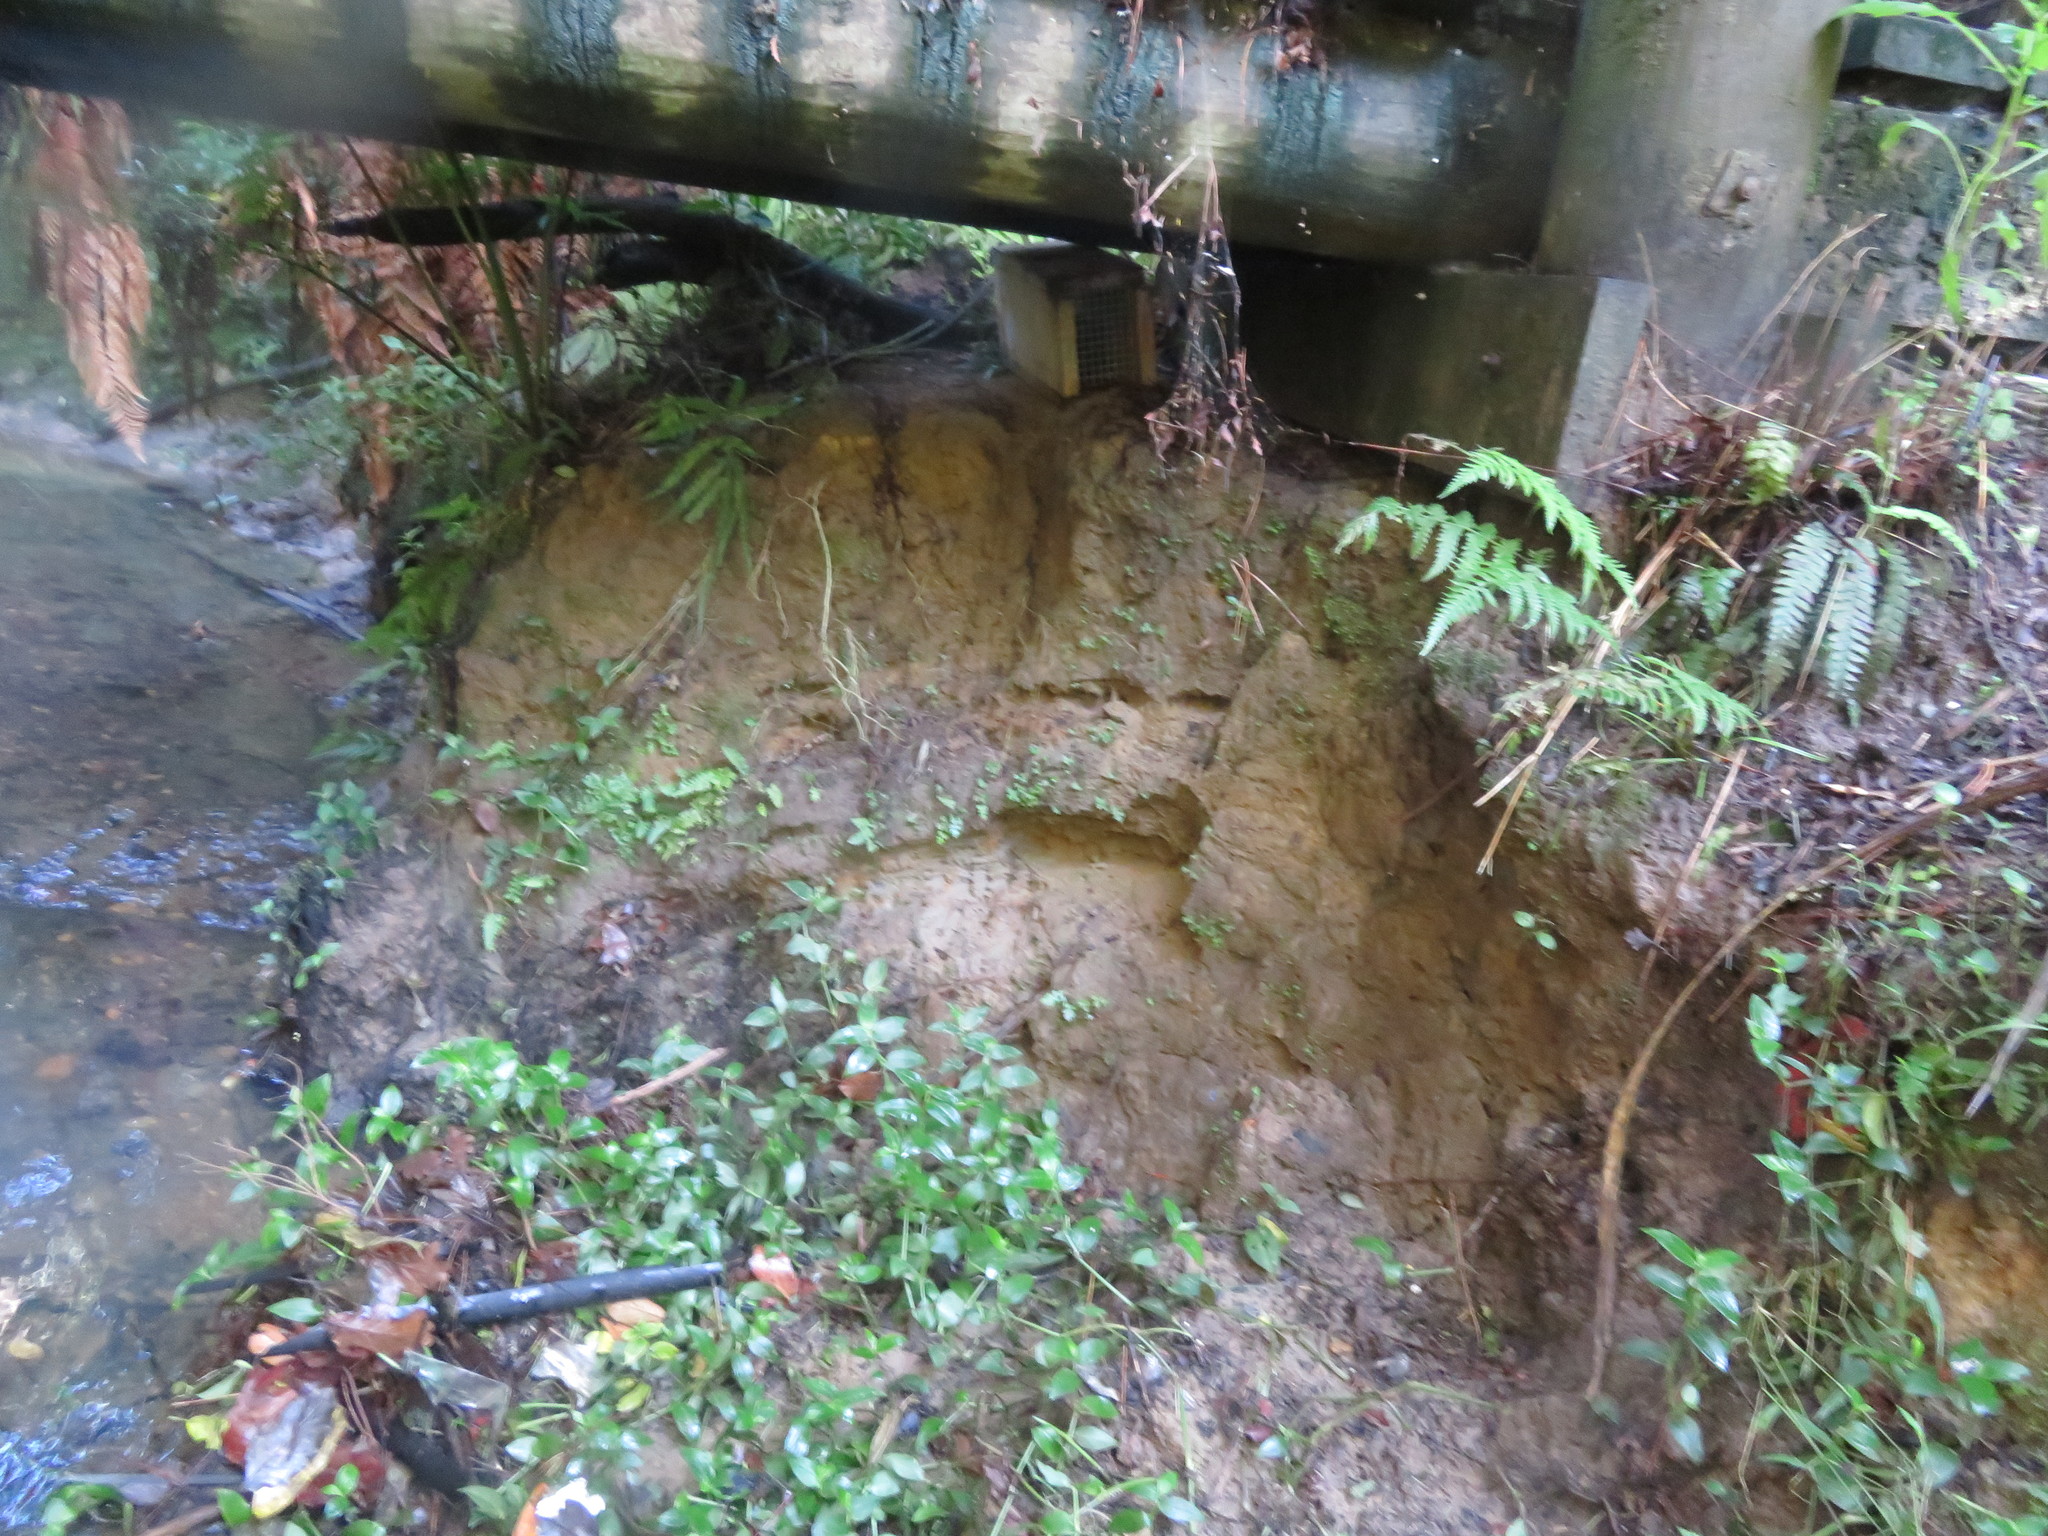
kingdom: Plantae
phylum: Tracheophyta
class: Liliopsida
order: Commelinales
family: Commelinaceae
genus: Tradescantia
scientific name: Tradescantia fluminensis
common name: Wandering-jew
